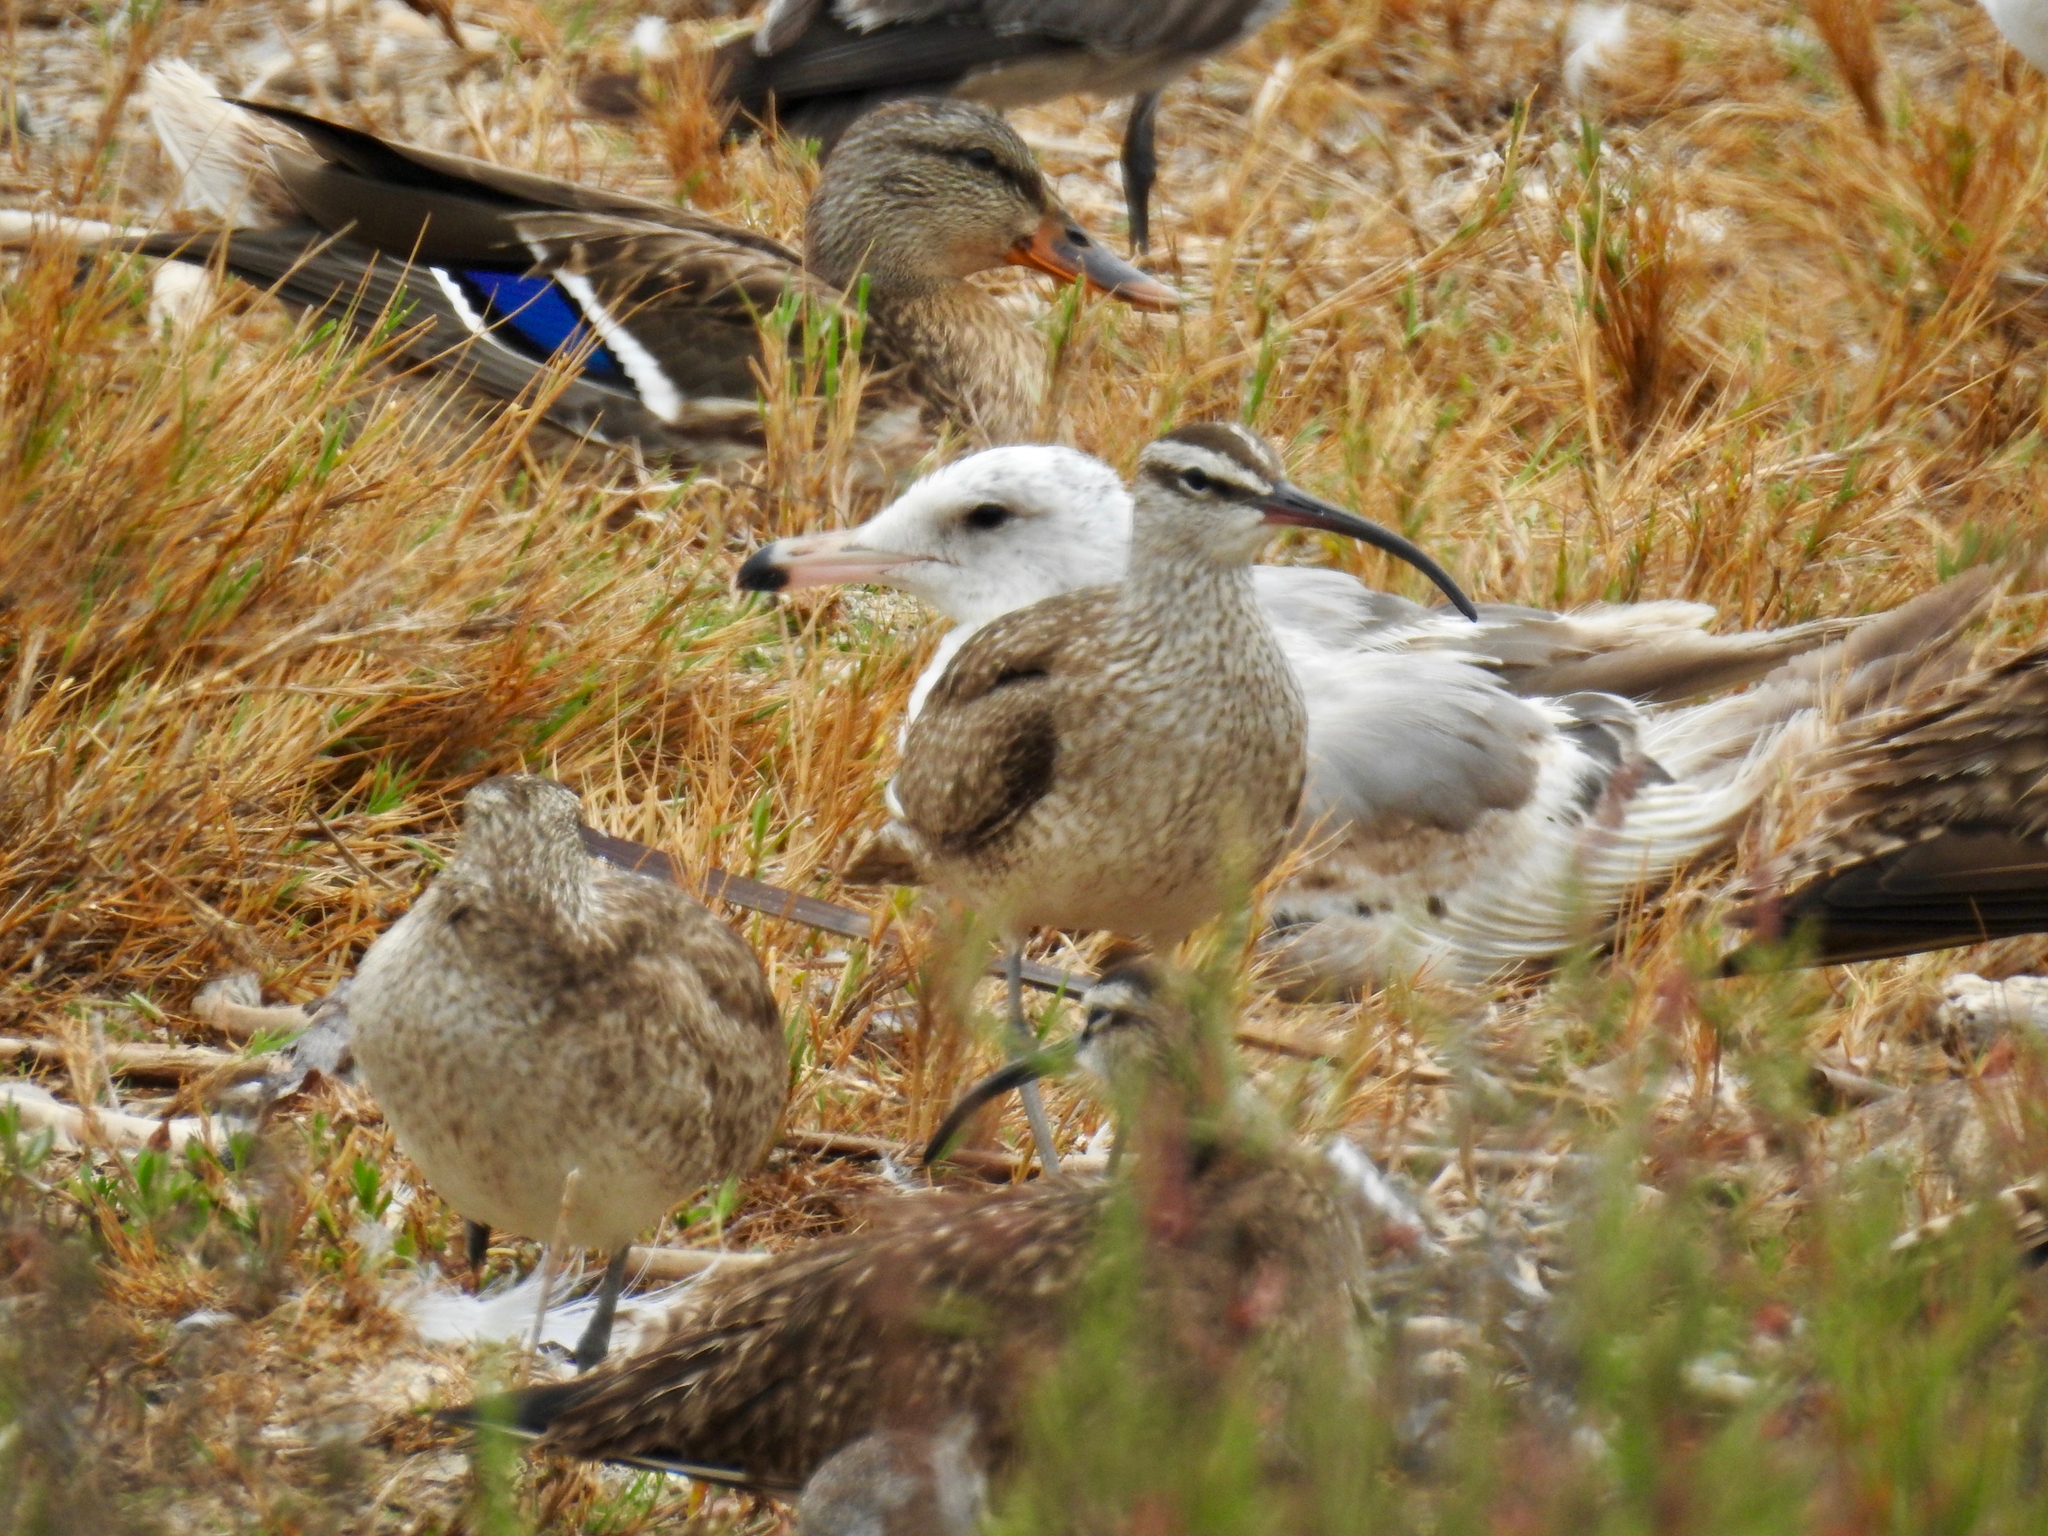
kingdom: Animalia
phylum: Chordata
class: Aves
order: Anseriformes
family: Anatidae
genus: Anas
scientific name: Anas platyrhynchos
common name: Mallard
